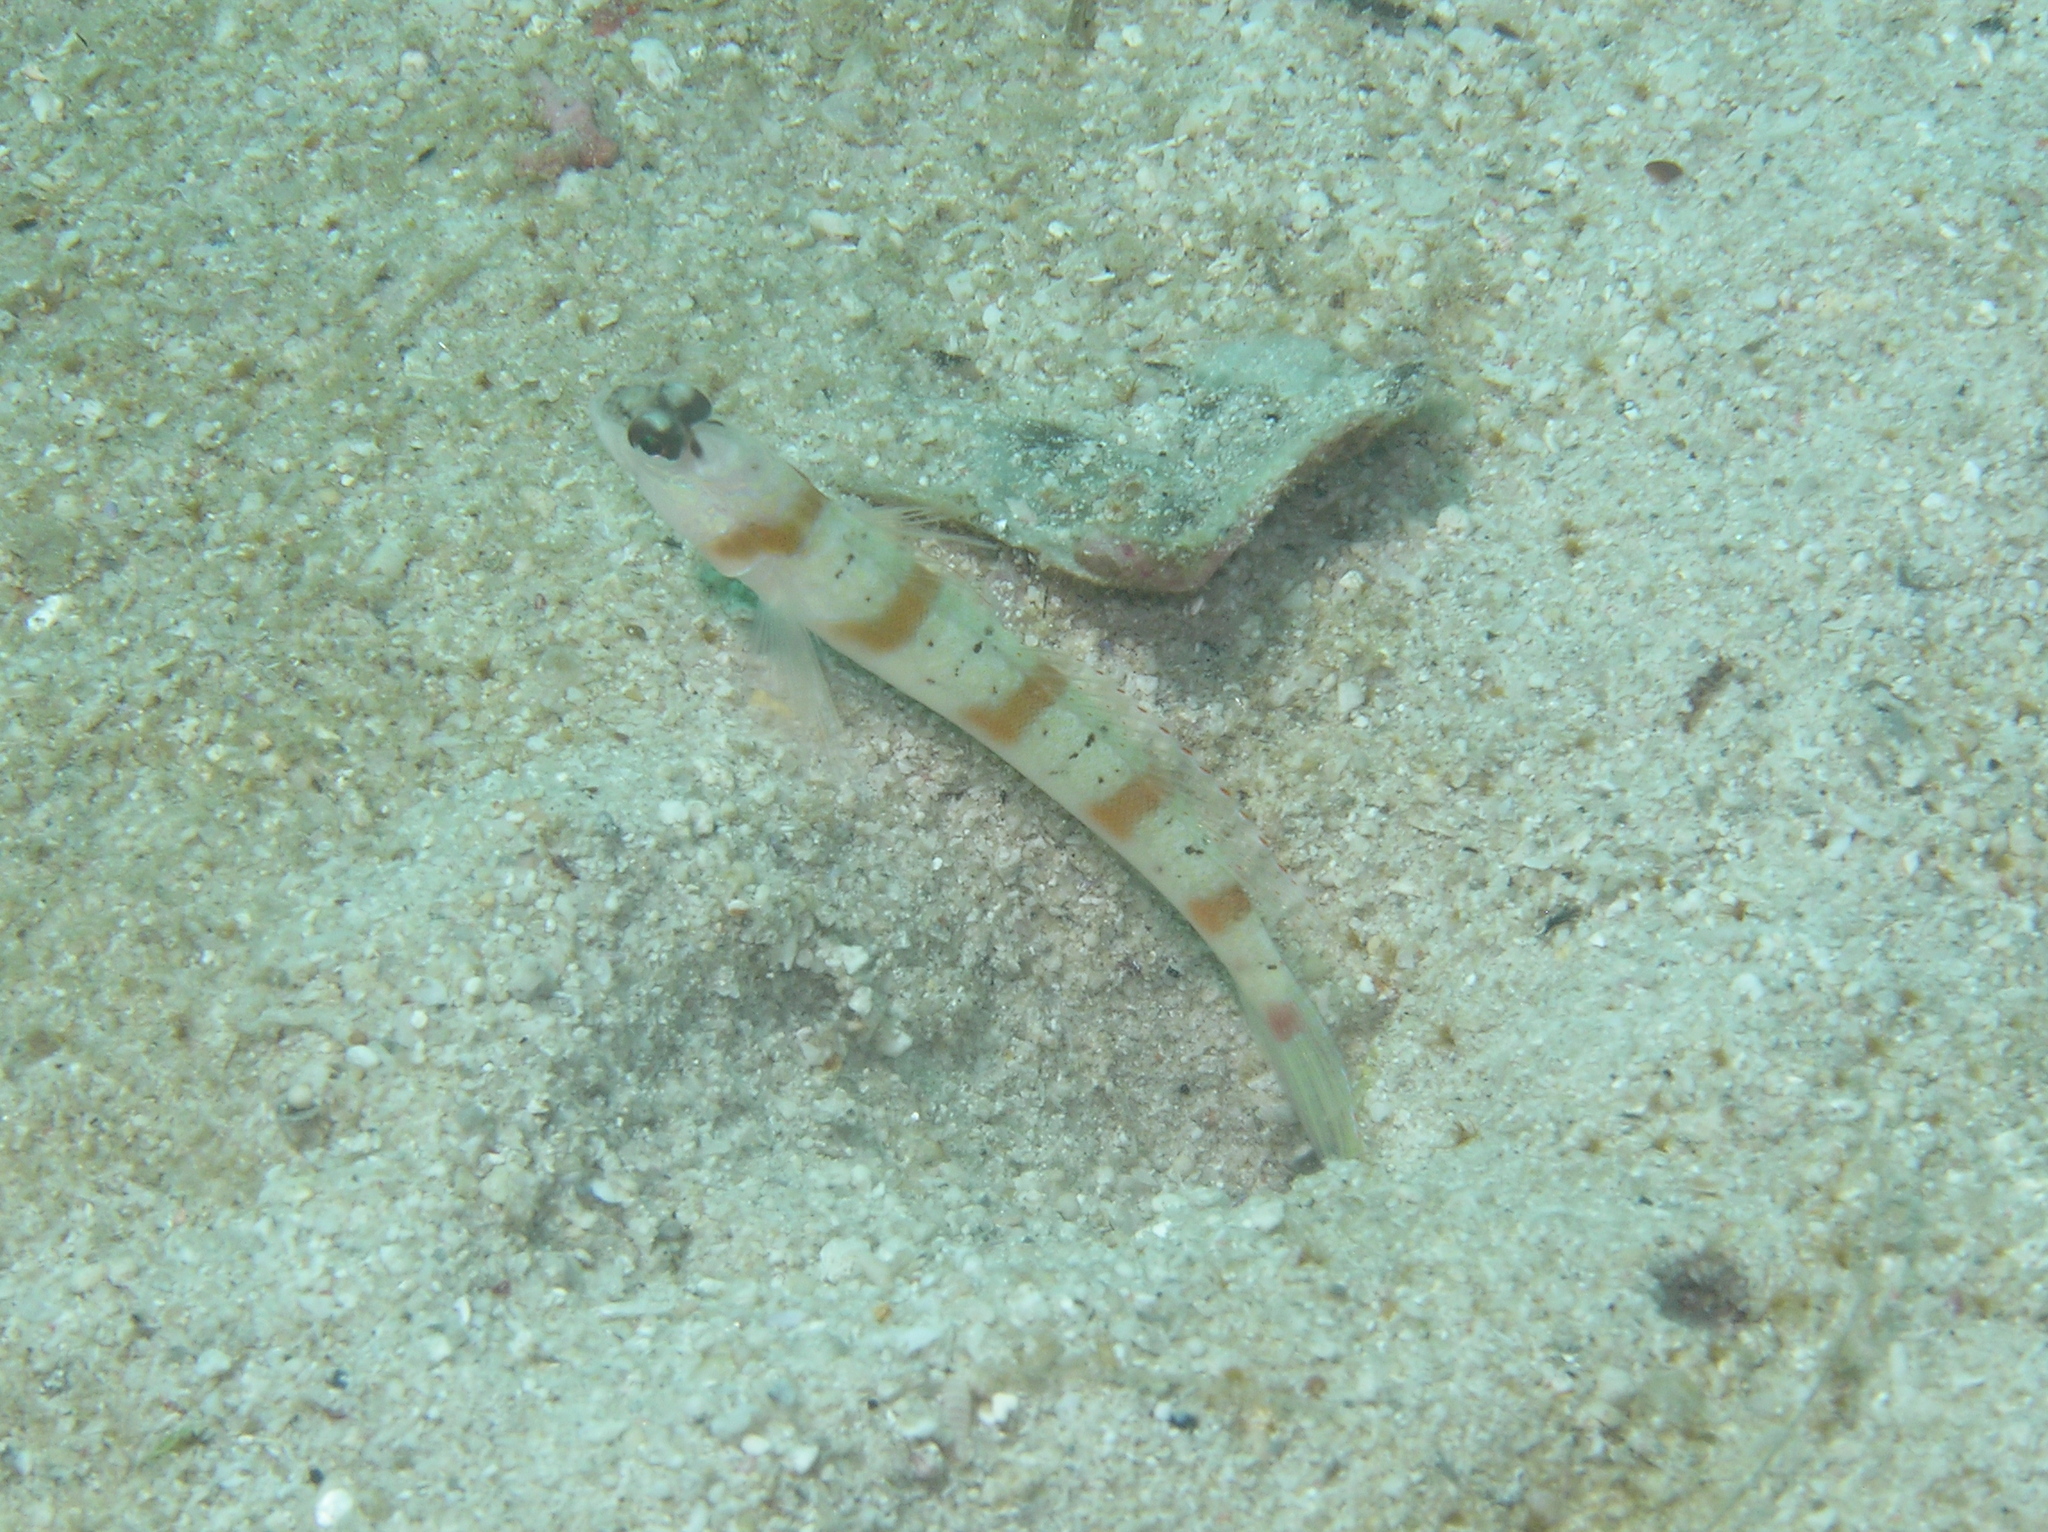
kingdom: Animalia
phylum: Chordata
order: Perciformes
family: Gobiidae
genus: Amblyeleotris
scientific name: Amblyeleotris rubrimarginata
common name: Redmargin shrimpgoby
